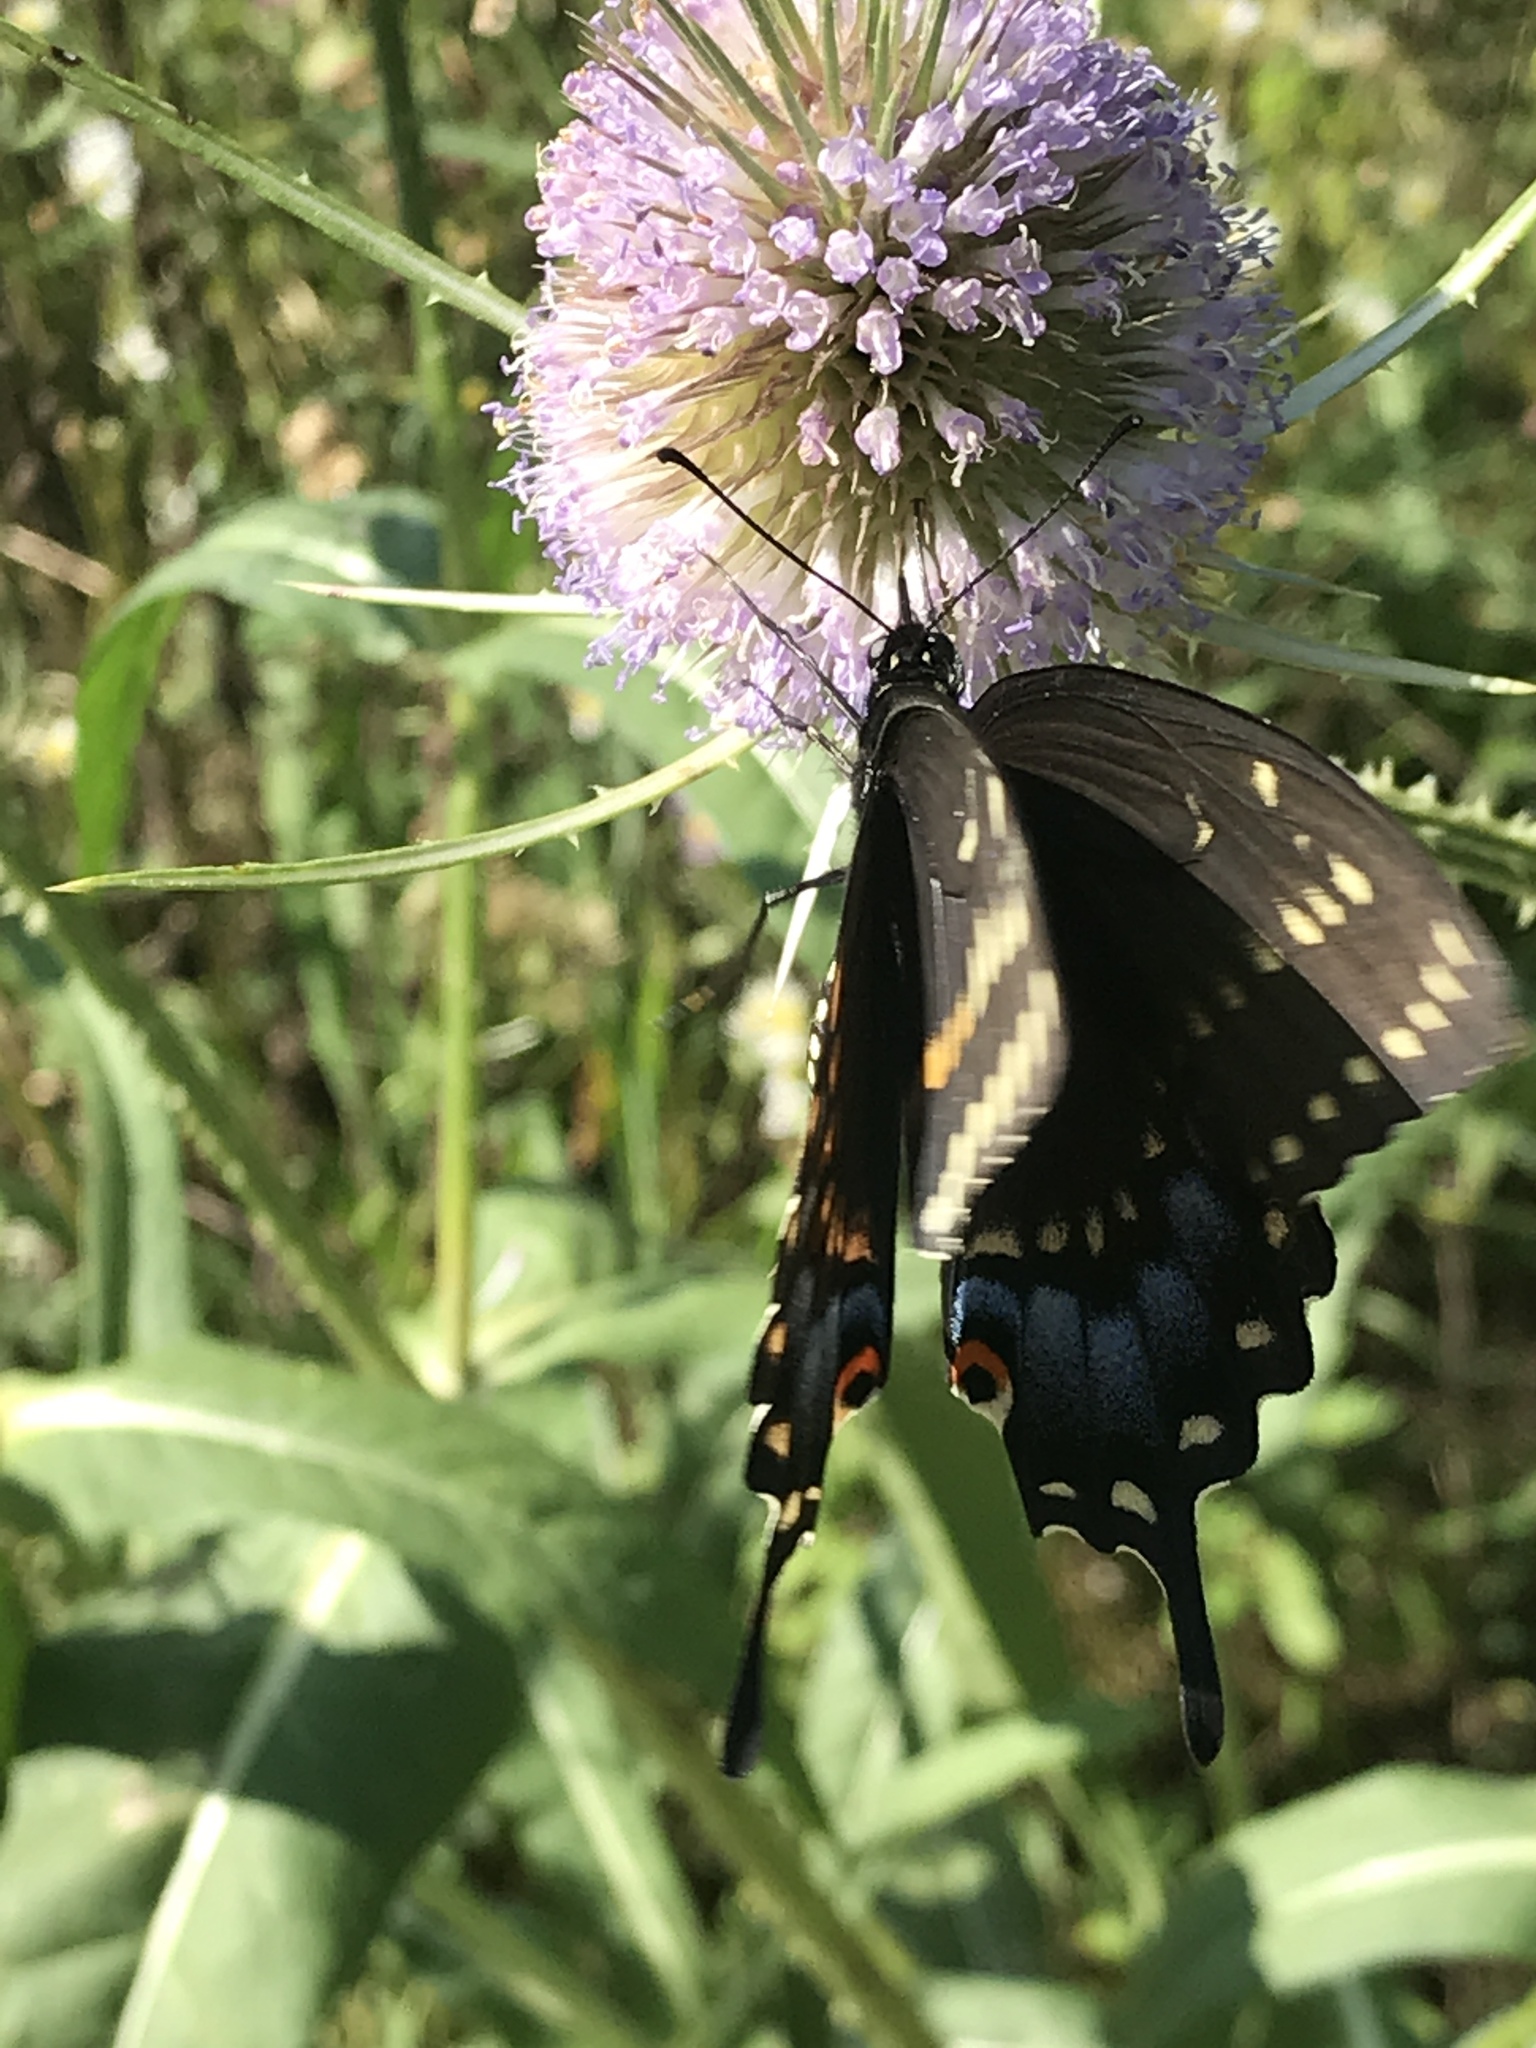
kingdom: Animalia
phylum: Arthropoda
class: Insecta
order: Lepidoptera
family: Papilionidae
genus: Papilio
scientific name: Papilio polyxenes
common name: Black swallowtail
